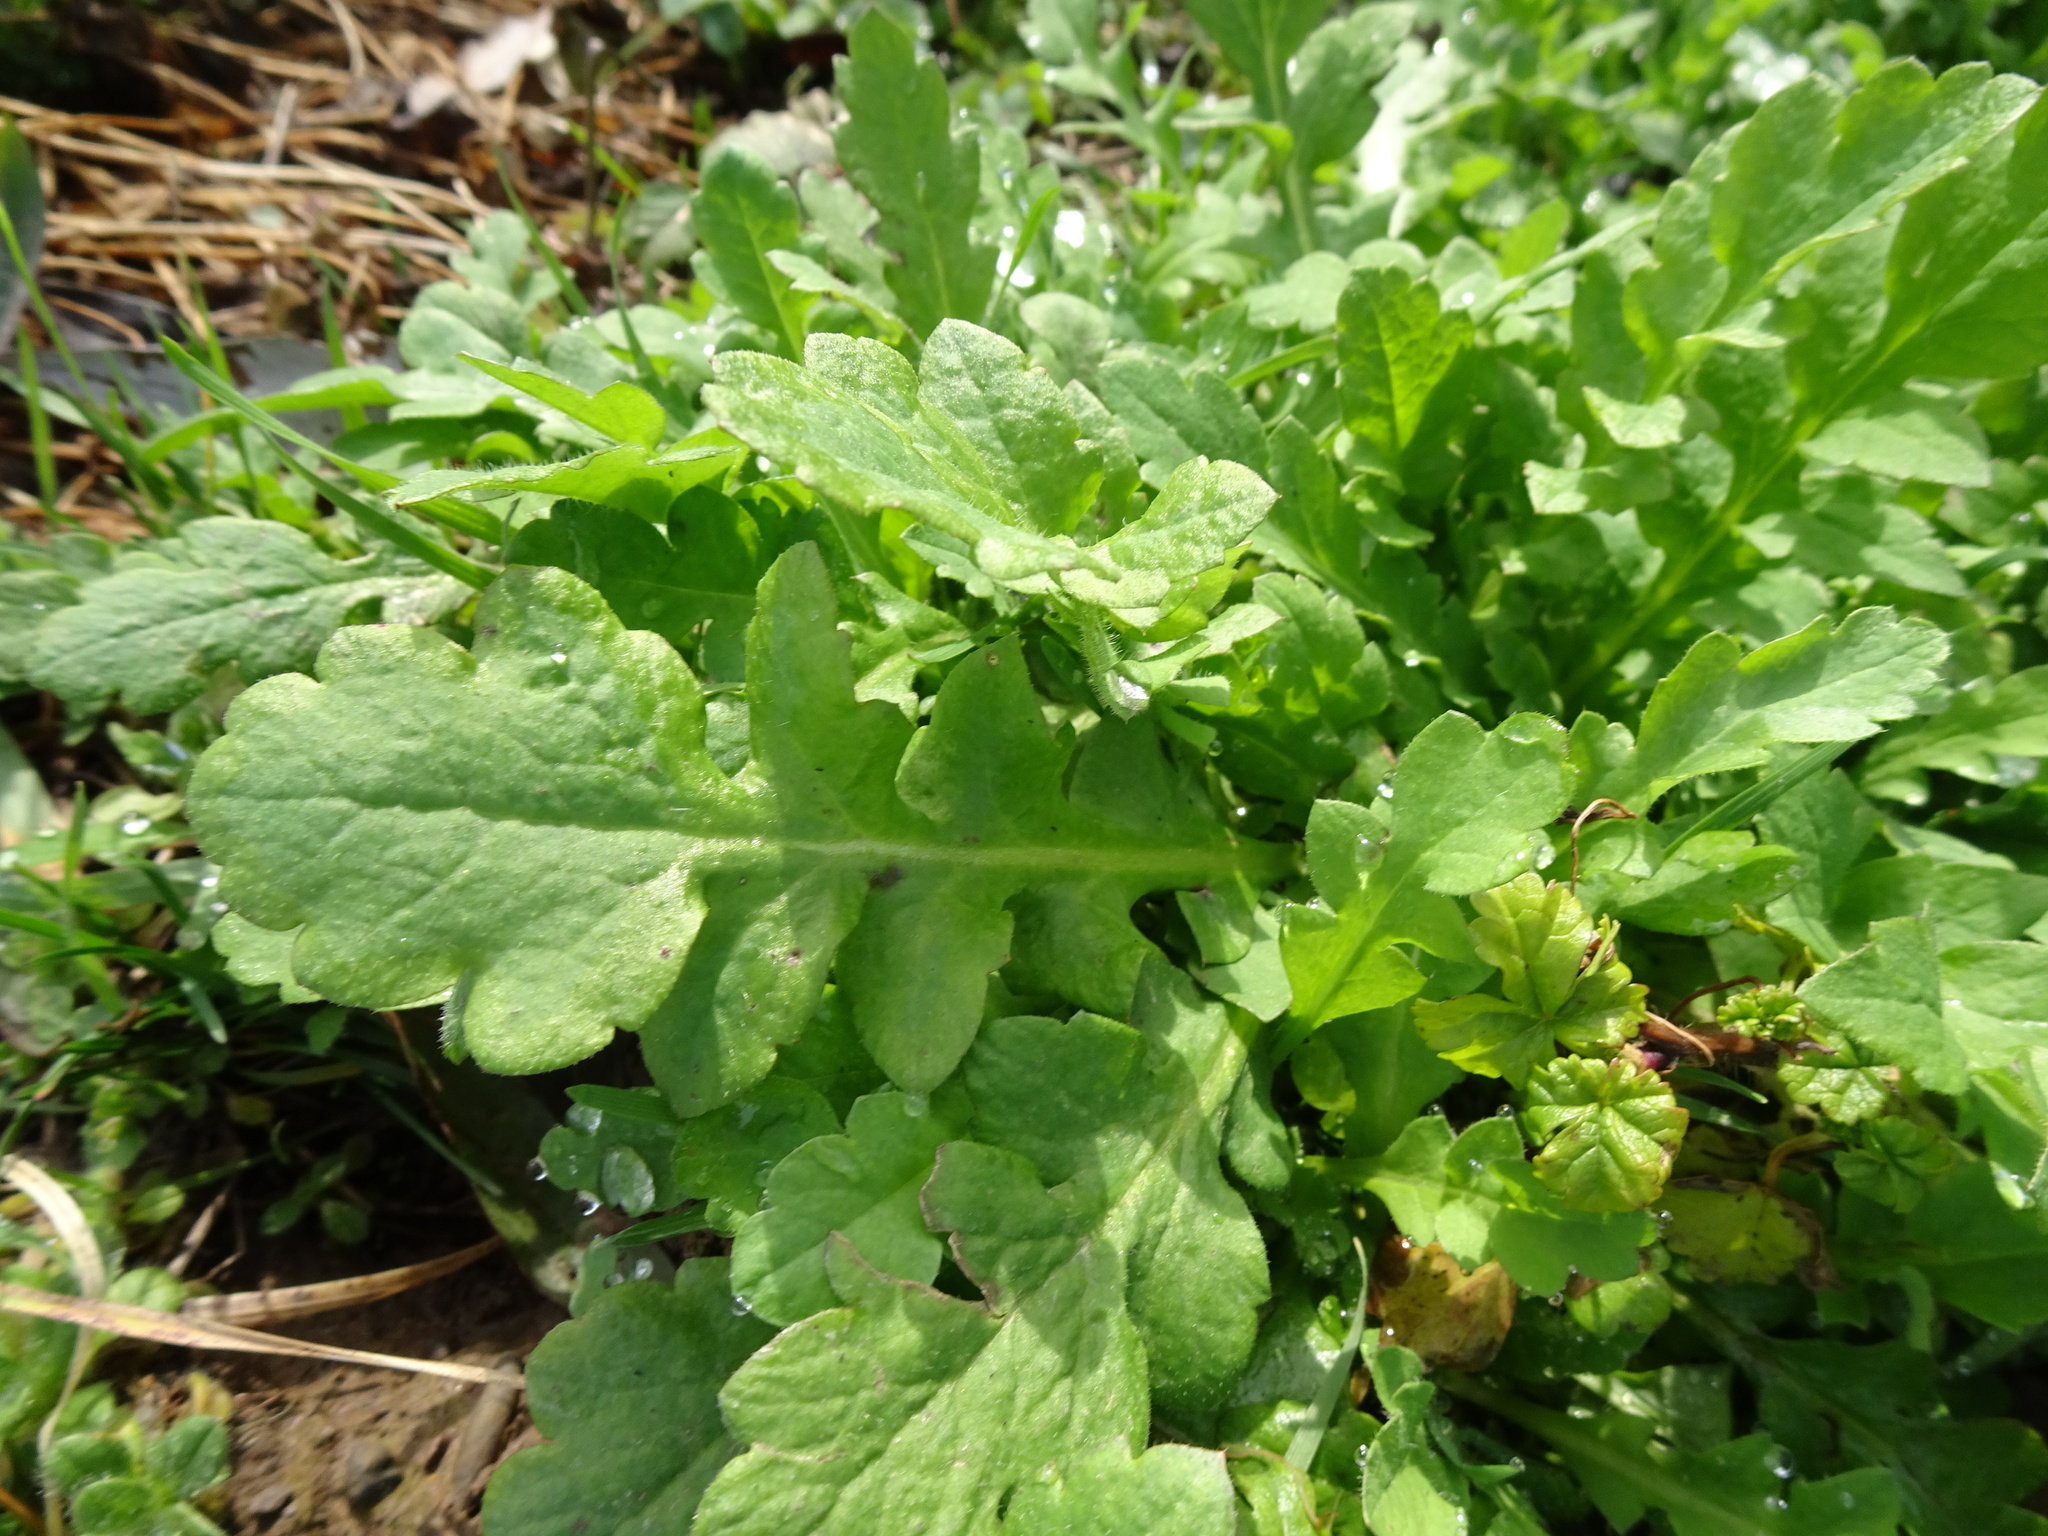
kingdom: Plantae
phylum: Tracheophyta
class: Magnoliopsida
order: Brassicales
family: Brassicaceae
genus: Rorippa
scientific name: Rorippa palustris
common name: Marsh yellow-cress
